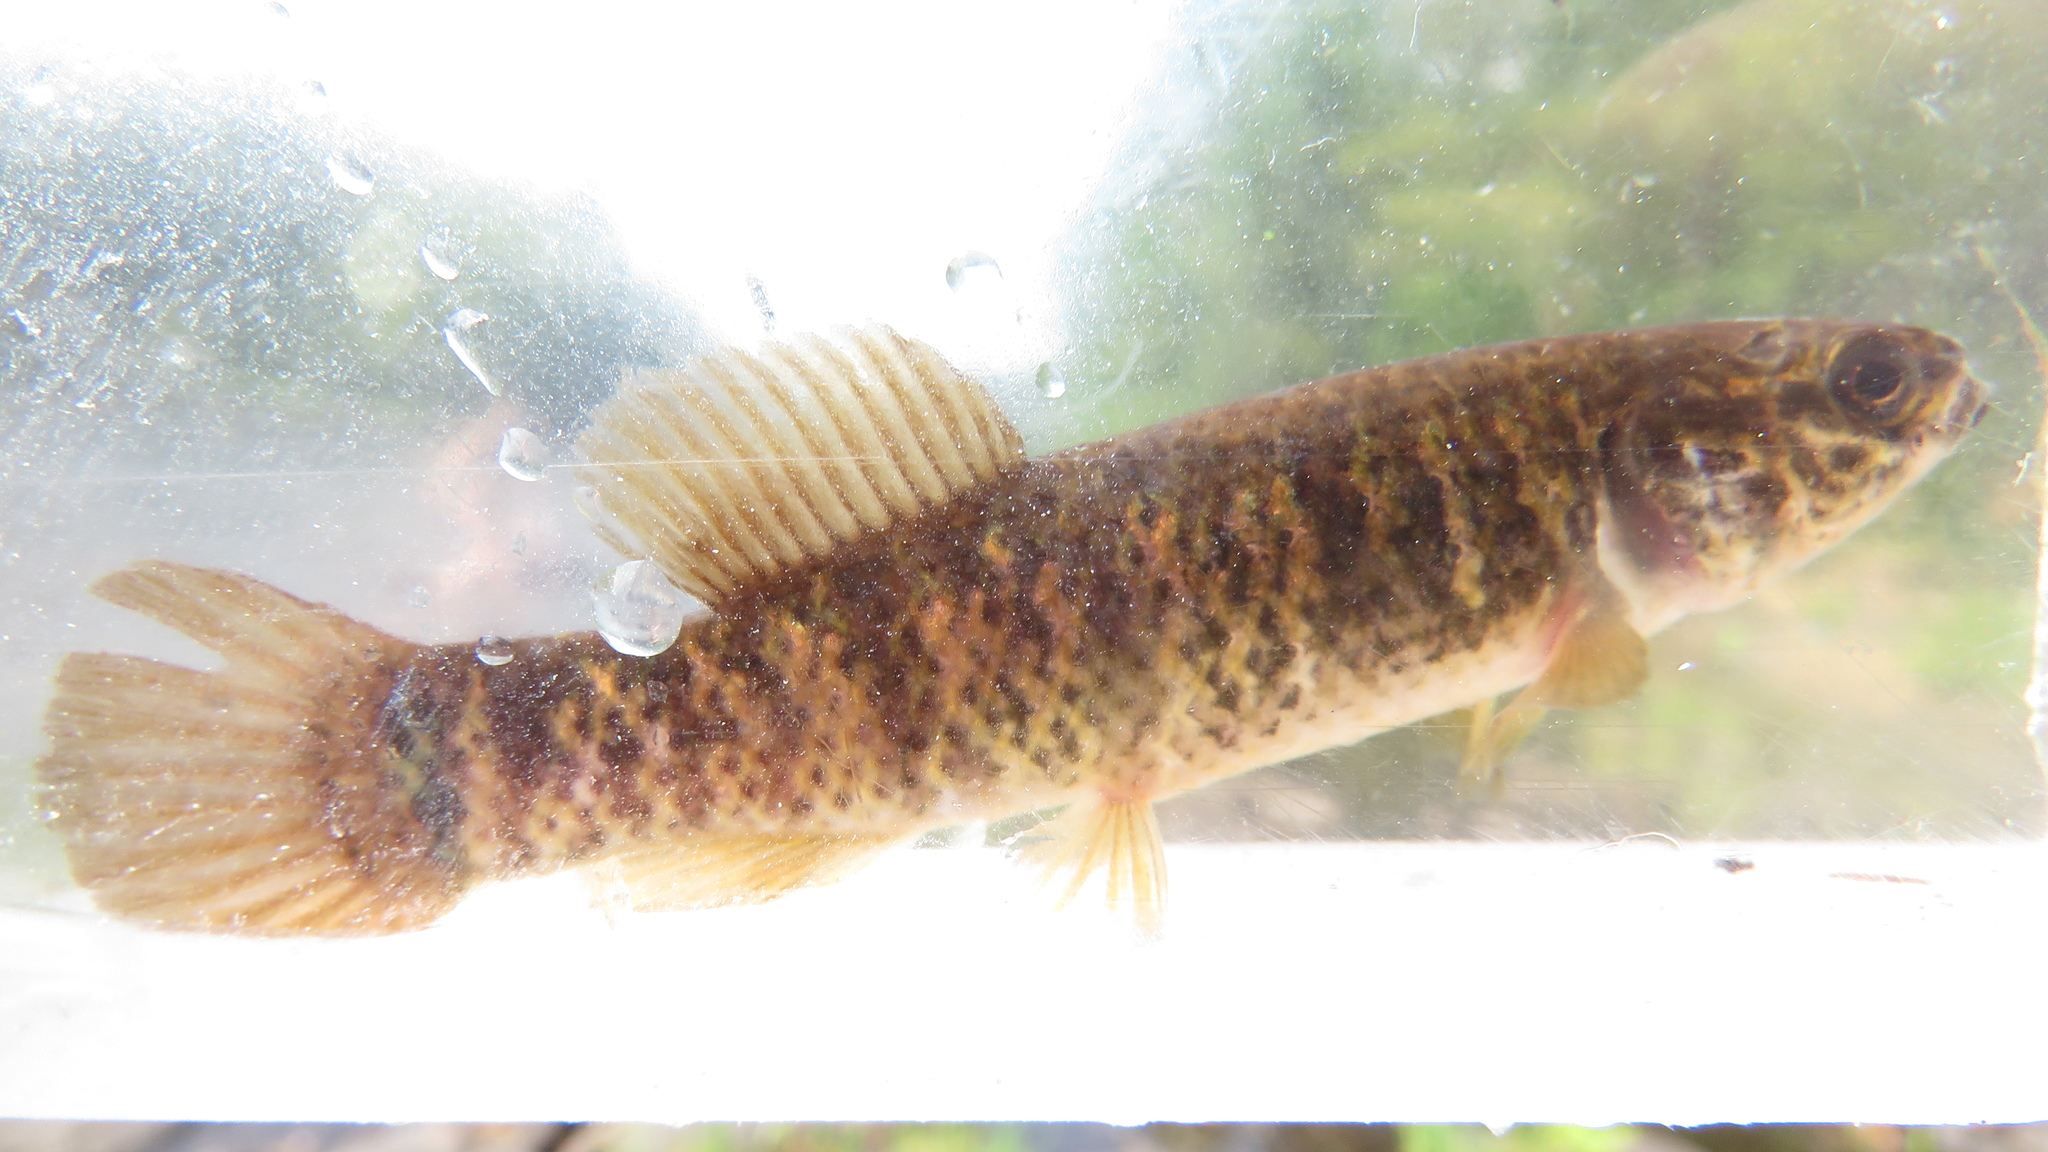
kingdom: Animalia
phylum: Chordata
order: Esociformes
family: Umbridae
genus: Umbra
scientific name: Umbra limi
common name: Central mudminnow
